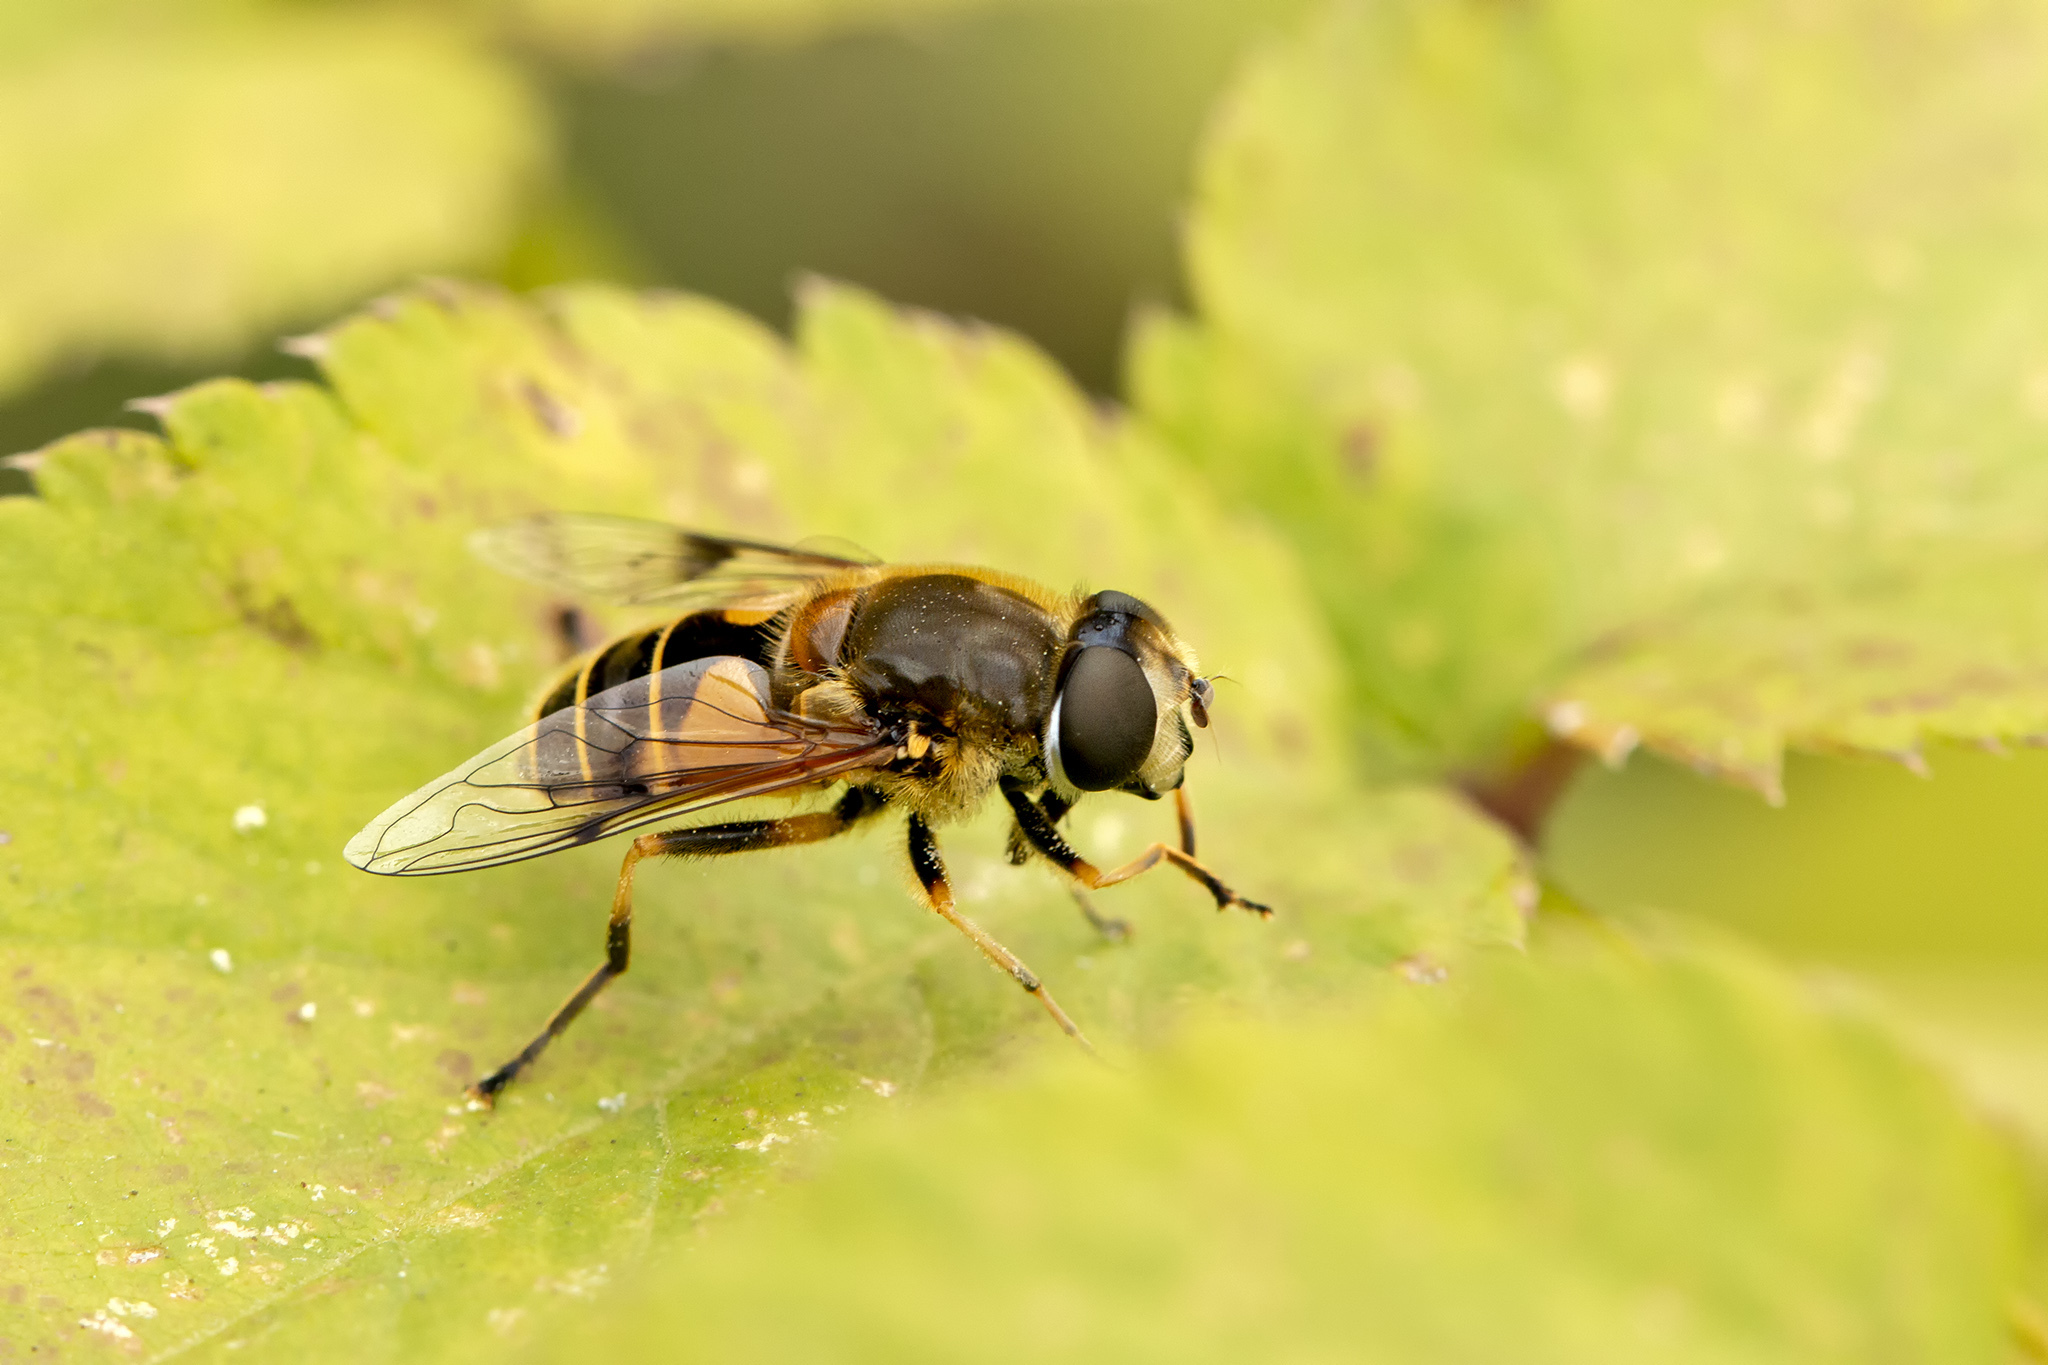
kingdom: Animalia
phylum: Arthropoda
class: Insecta
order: Diptera
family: Syrphidae
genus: Cheilosia
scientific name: Cheilosia morio
